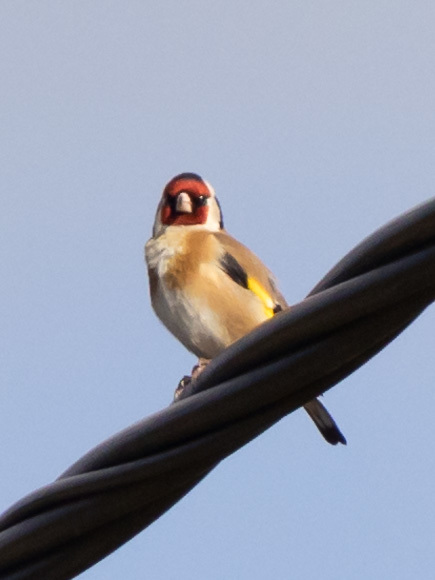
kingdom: Animalia
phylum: Chordata
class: Aves
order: Passeriformes
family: Fringillidae
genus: Carduelis
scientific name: Carduelis carduelis
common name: European goldfinch
